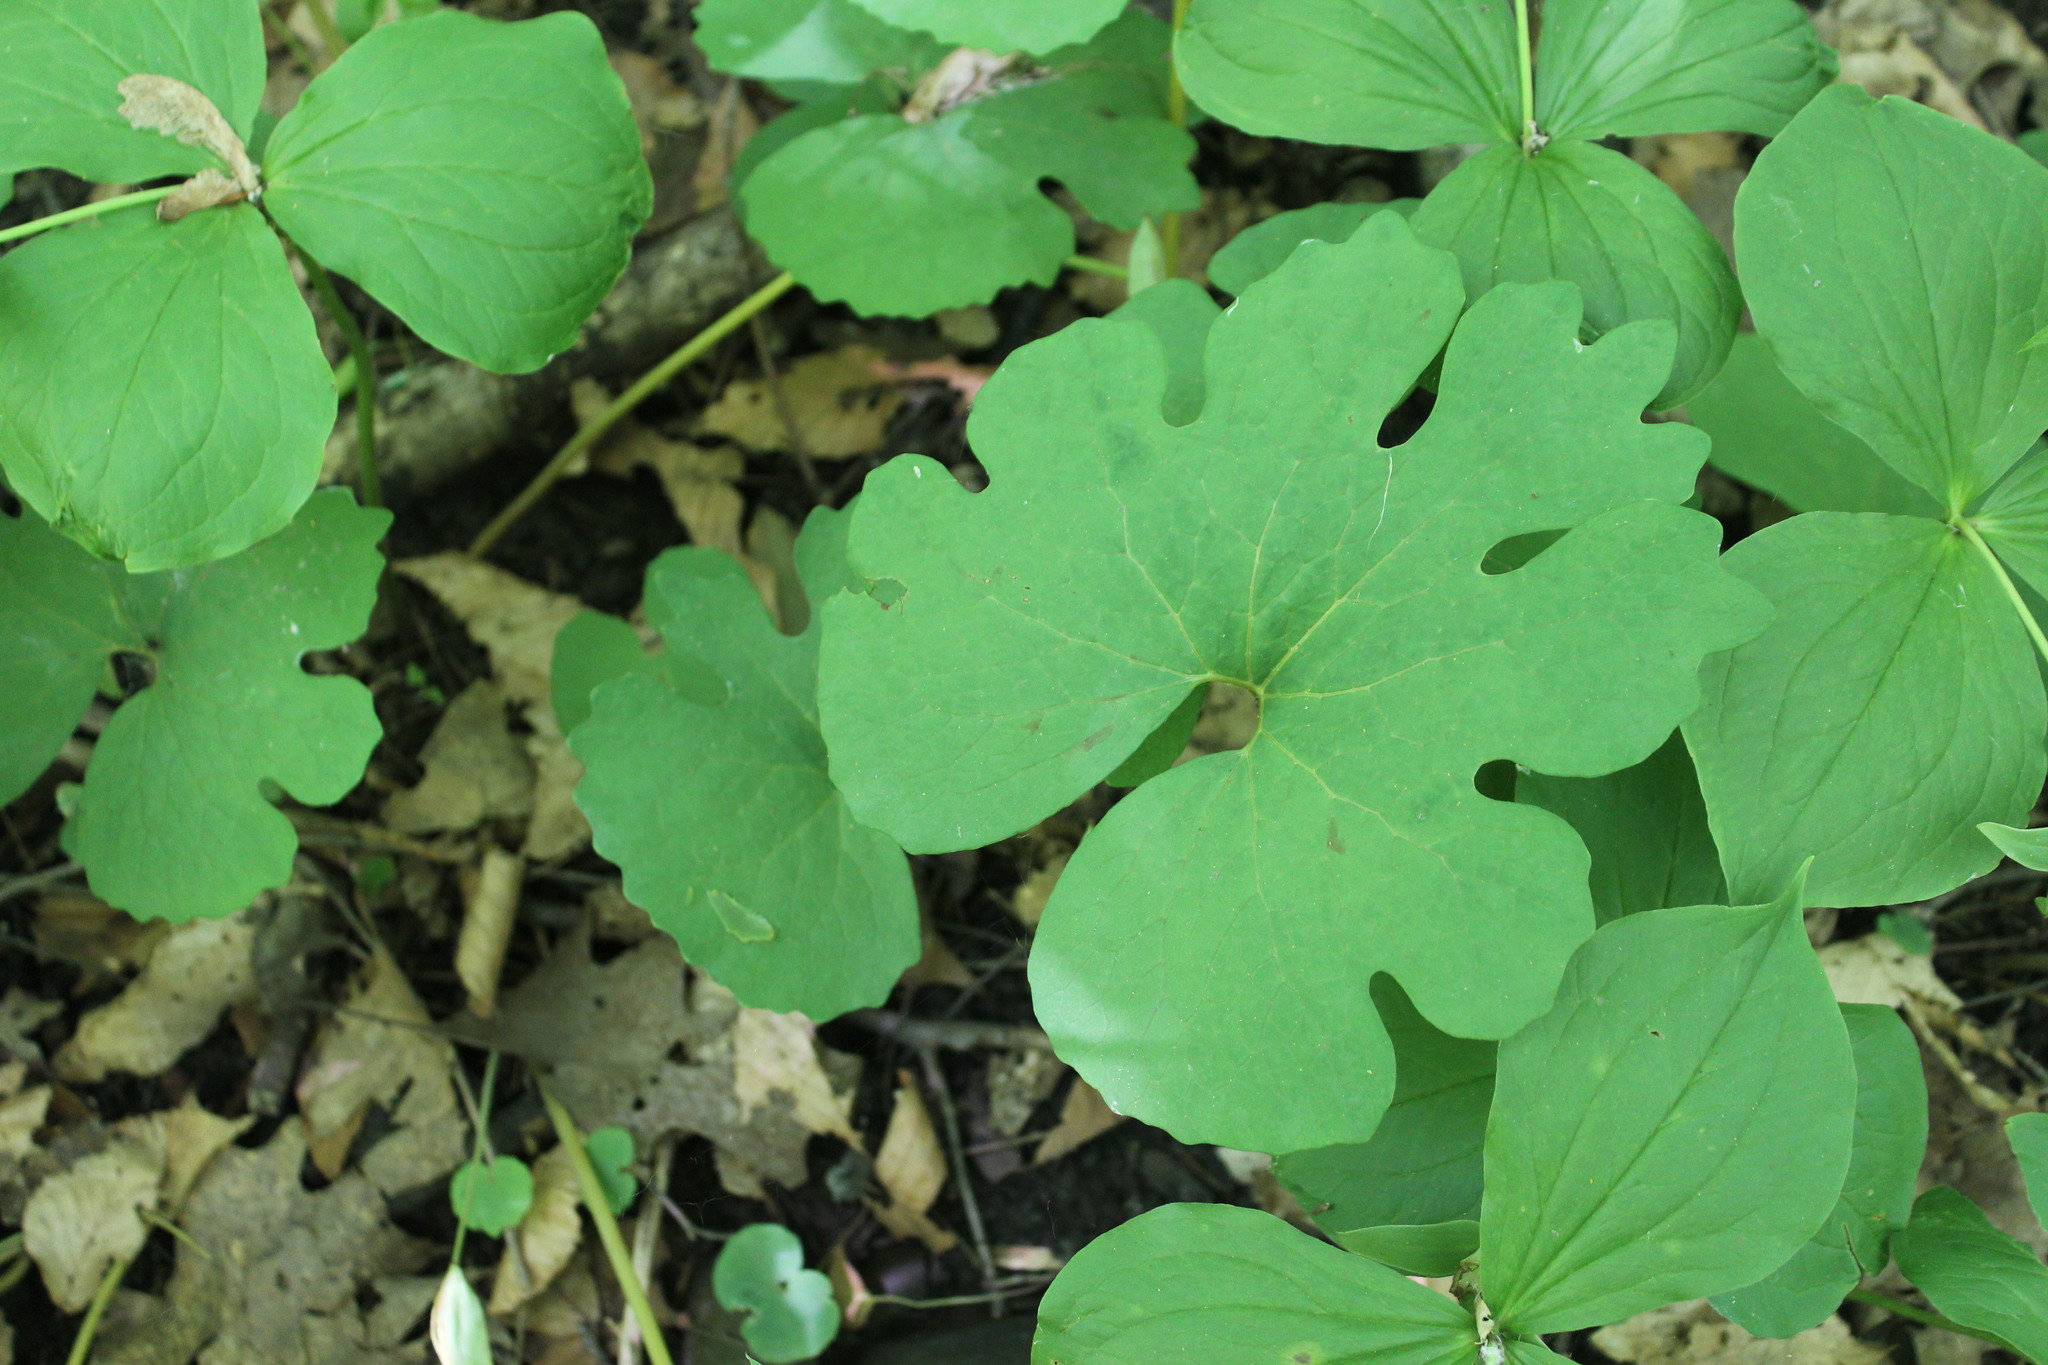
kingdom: Plantae
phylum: Tracheophyta
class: Magnoliopsida
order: Ranunculales
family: Papaveraceae
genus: Sanguinaria
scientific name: Sanguinaria canadensis
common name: Bloodroot
